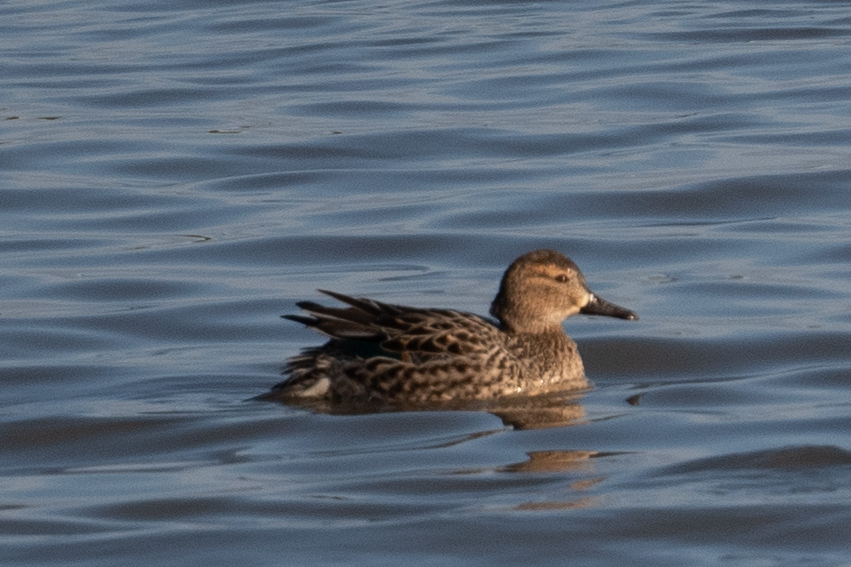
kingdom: Animalia
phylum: Chordata
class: Aves
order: Anseriformes
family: Anatidae
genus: Anas
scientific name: Anas crecca
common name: Eurasian teal
